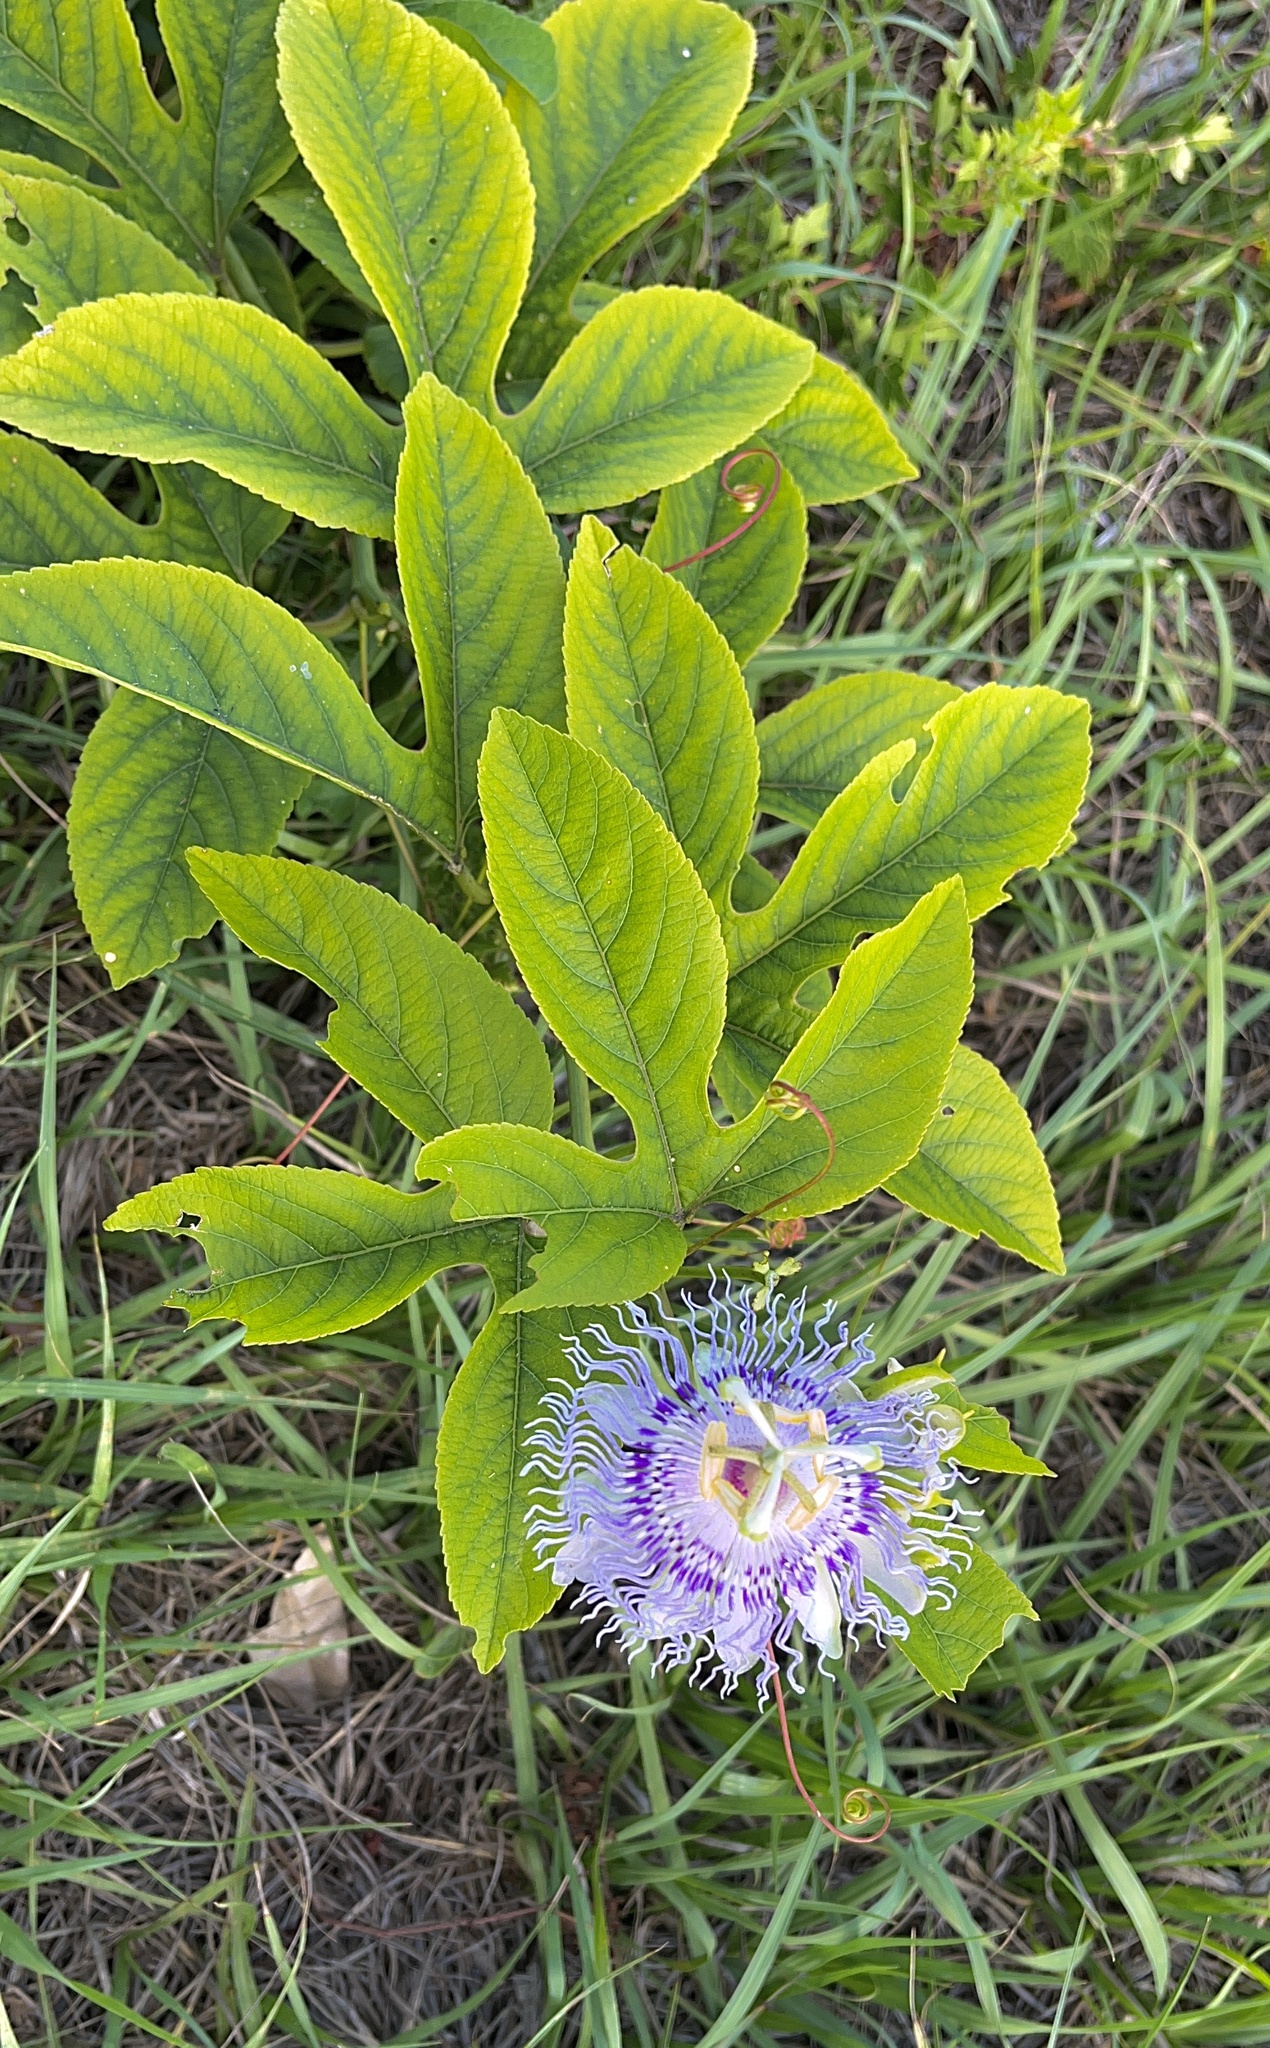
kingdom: Plantae
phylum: Tracheophyta
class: Magnoliopsida
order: Malpighiales
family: Passifloraceae
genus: Passiflora
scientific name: Passiflora incarnata
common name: Apricot-vine
